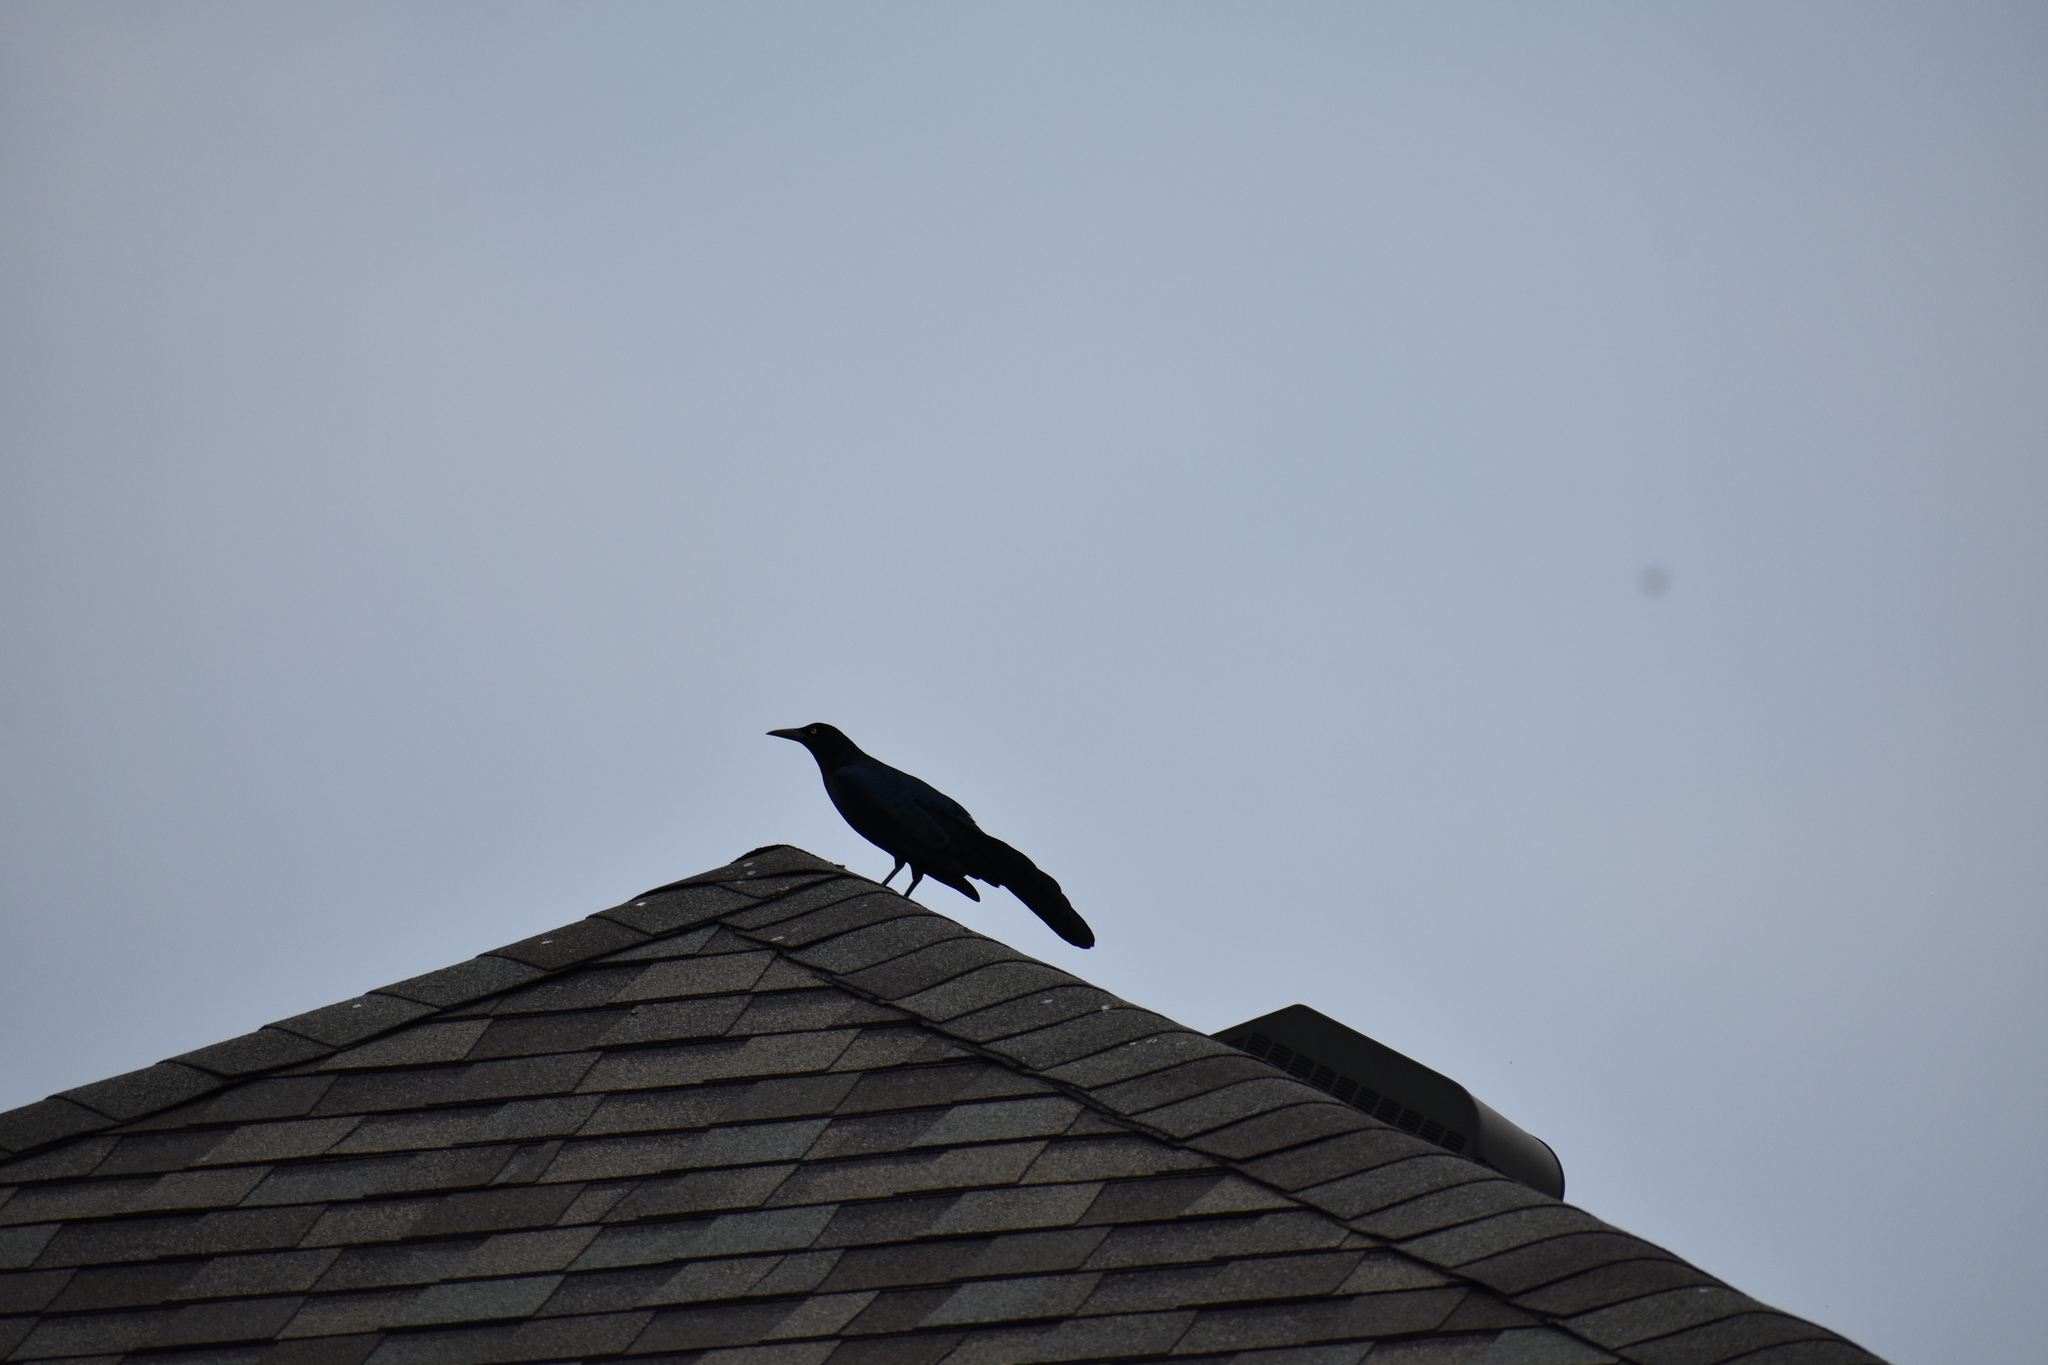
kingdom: Animalia
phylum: Chordata
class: Aves
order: Passeriformes
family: Icteridae
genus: Quiscalus
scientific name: Quiscalus mexicanus
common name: Great-tailed grackle
